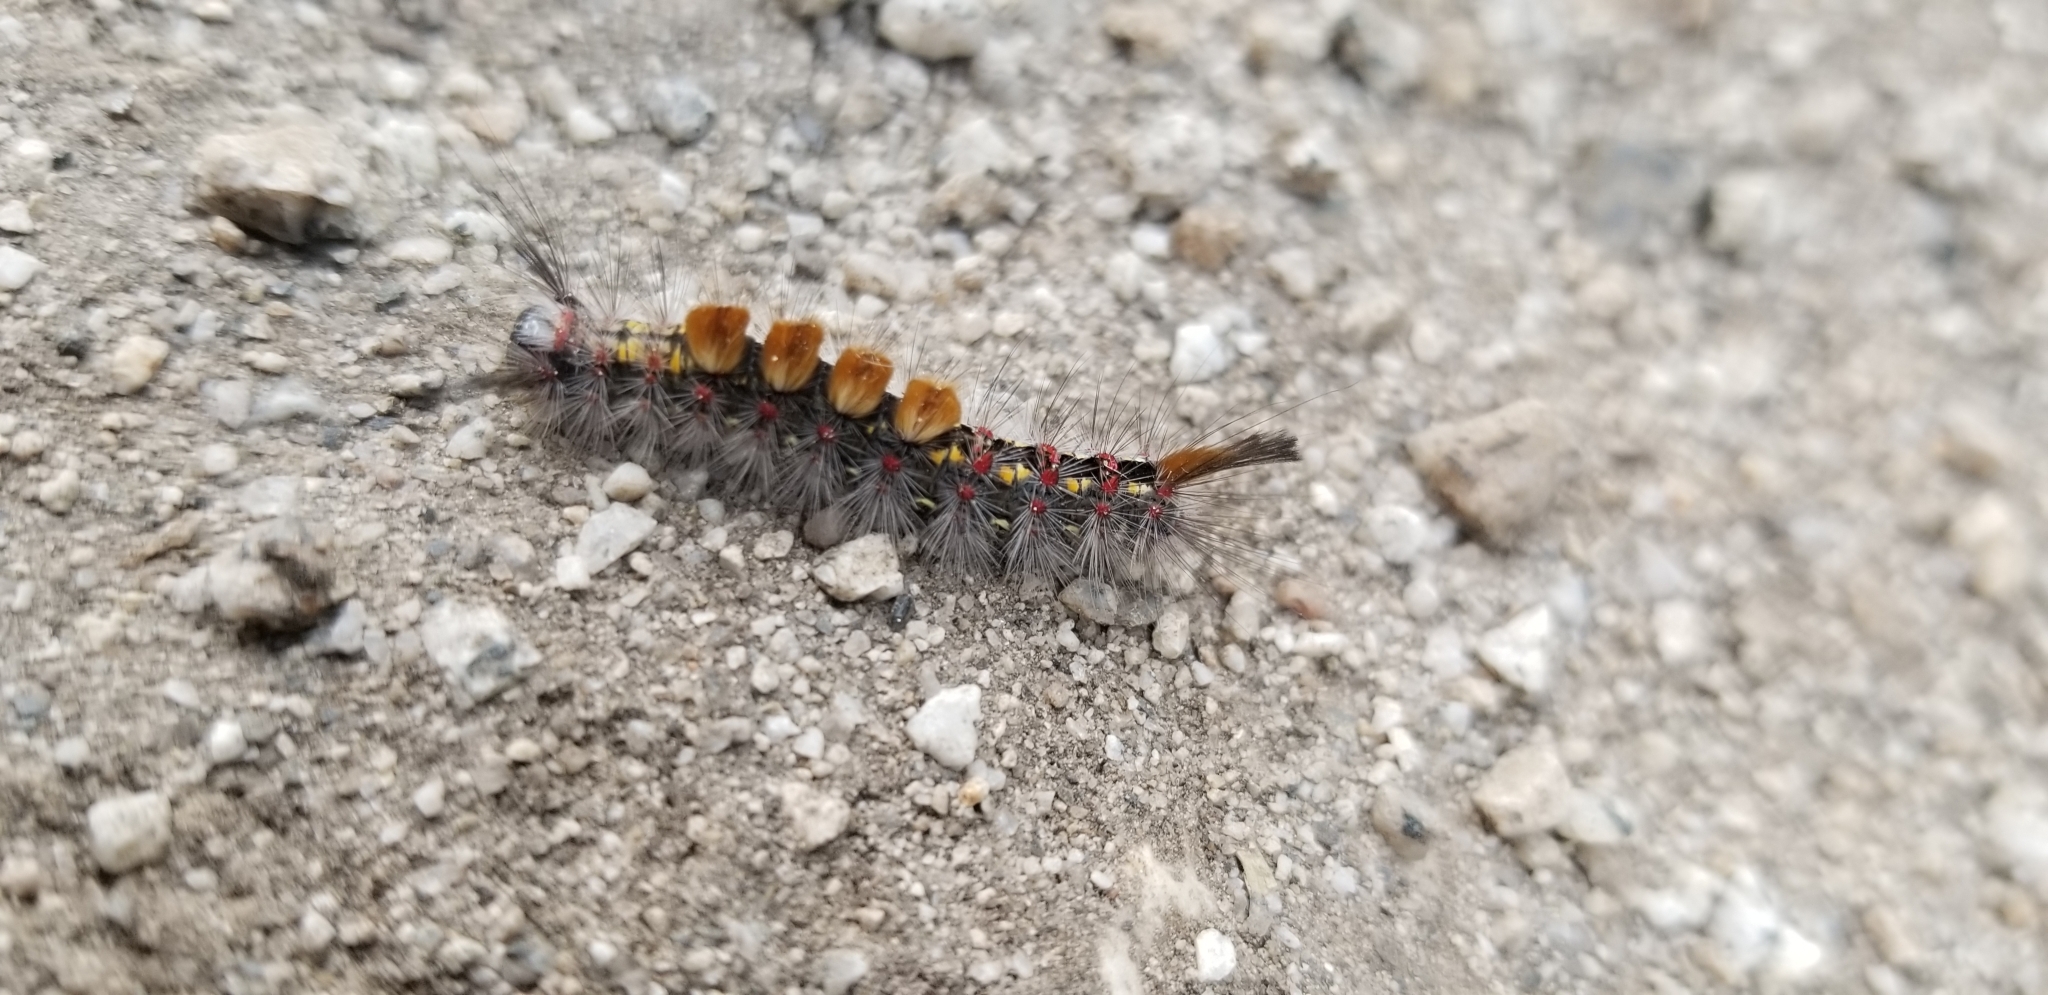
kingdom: Animalia
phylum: Arthropoda
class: Insecta
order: Lepidoptera
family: Erebidae
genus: Orgyia
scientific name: Orgyia vetusta
